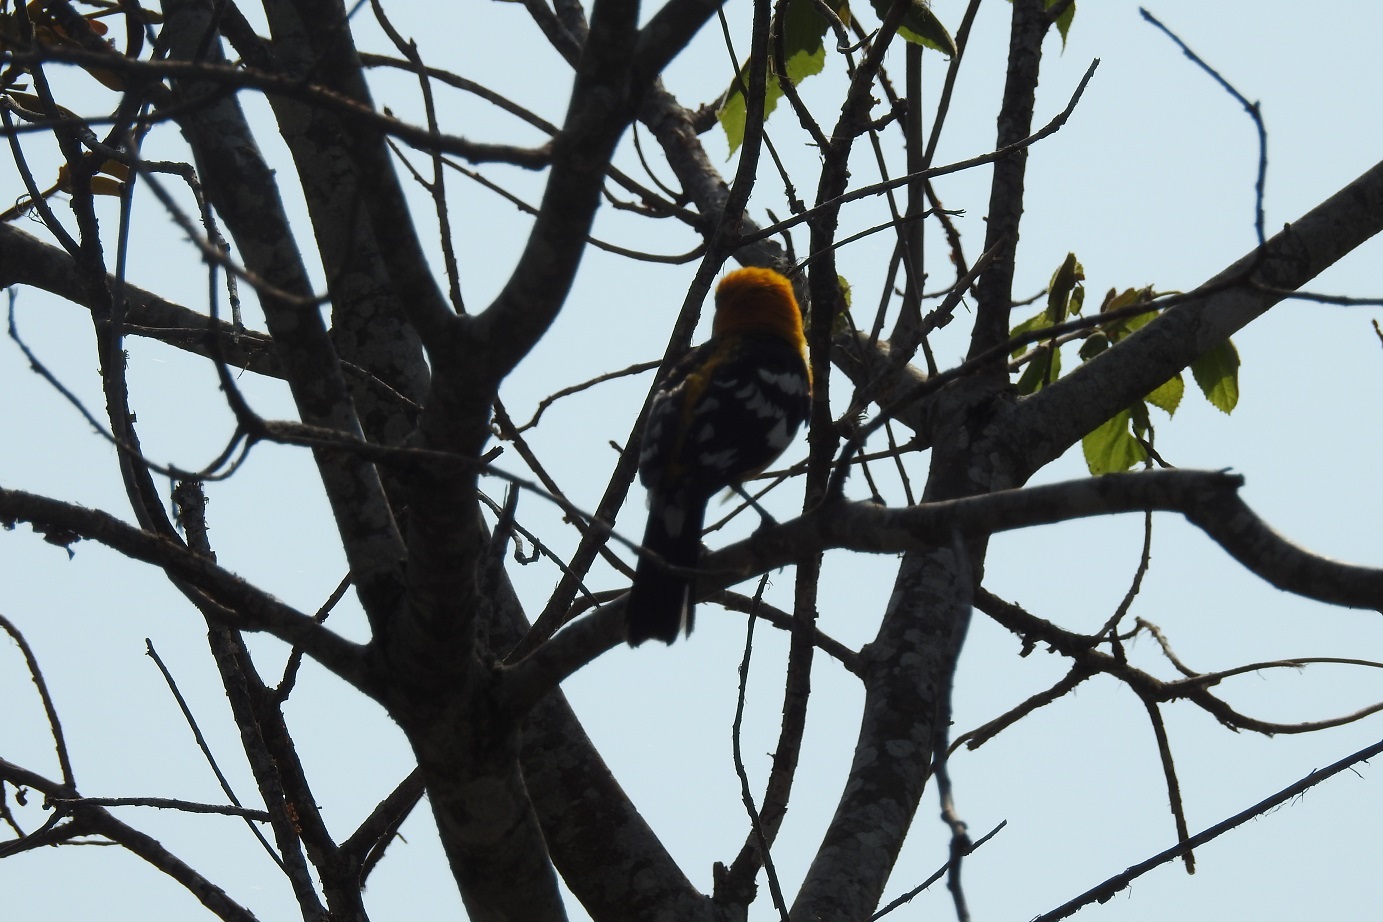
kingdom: Animalia
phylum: Chordata
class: Aves
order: Passeriformes
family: Cardinalidae
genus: Pheucticus
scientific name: Pheucticus chrysopeplus
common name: Yellow grosbeak
